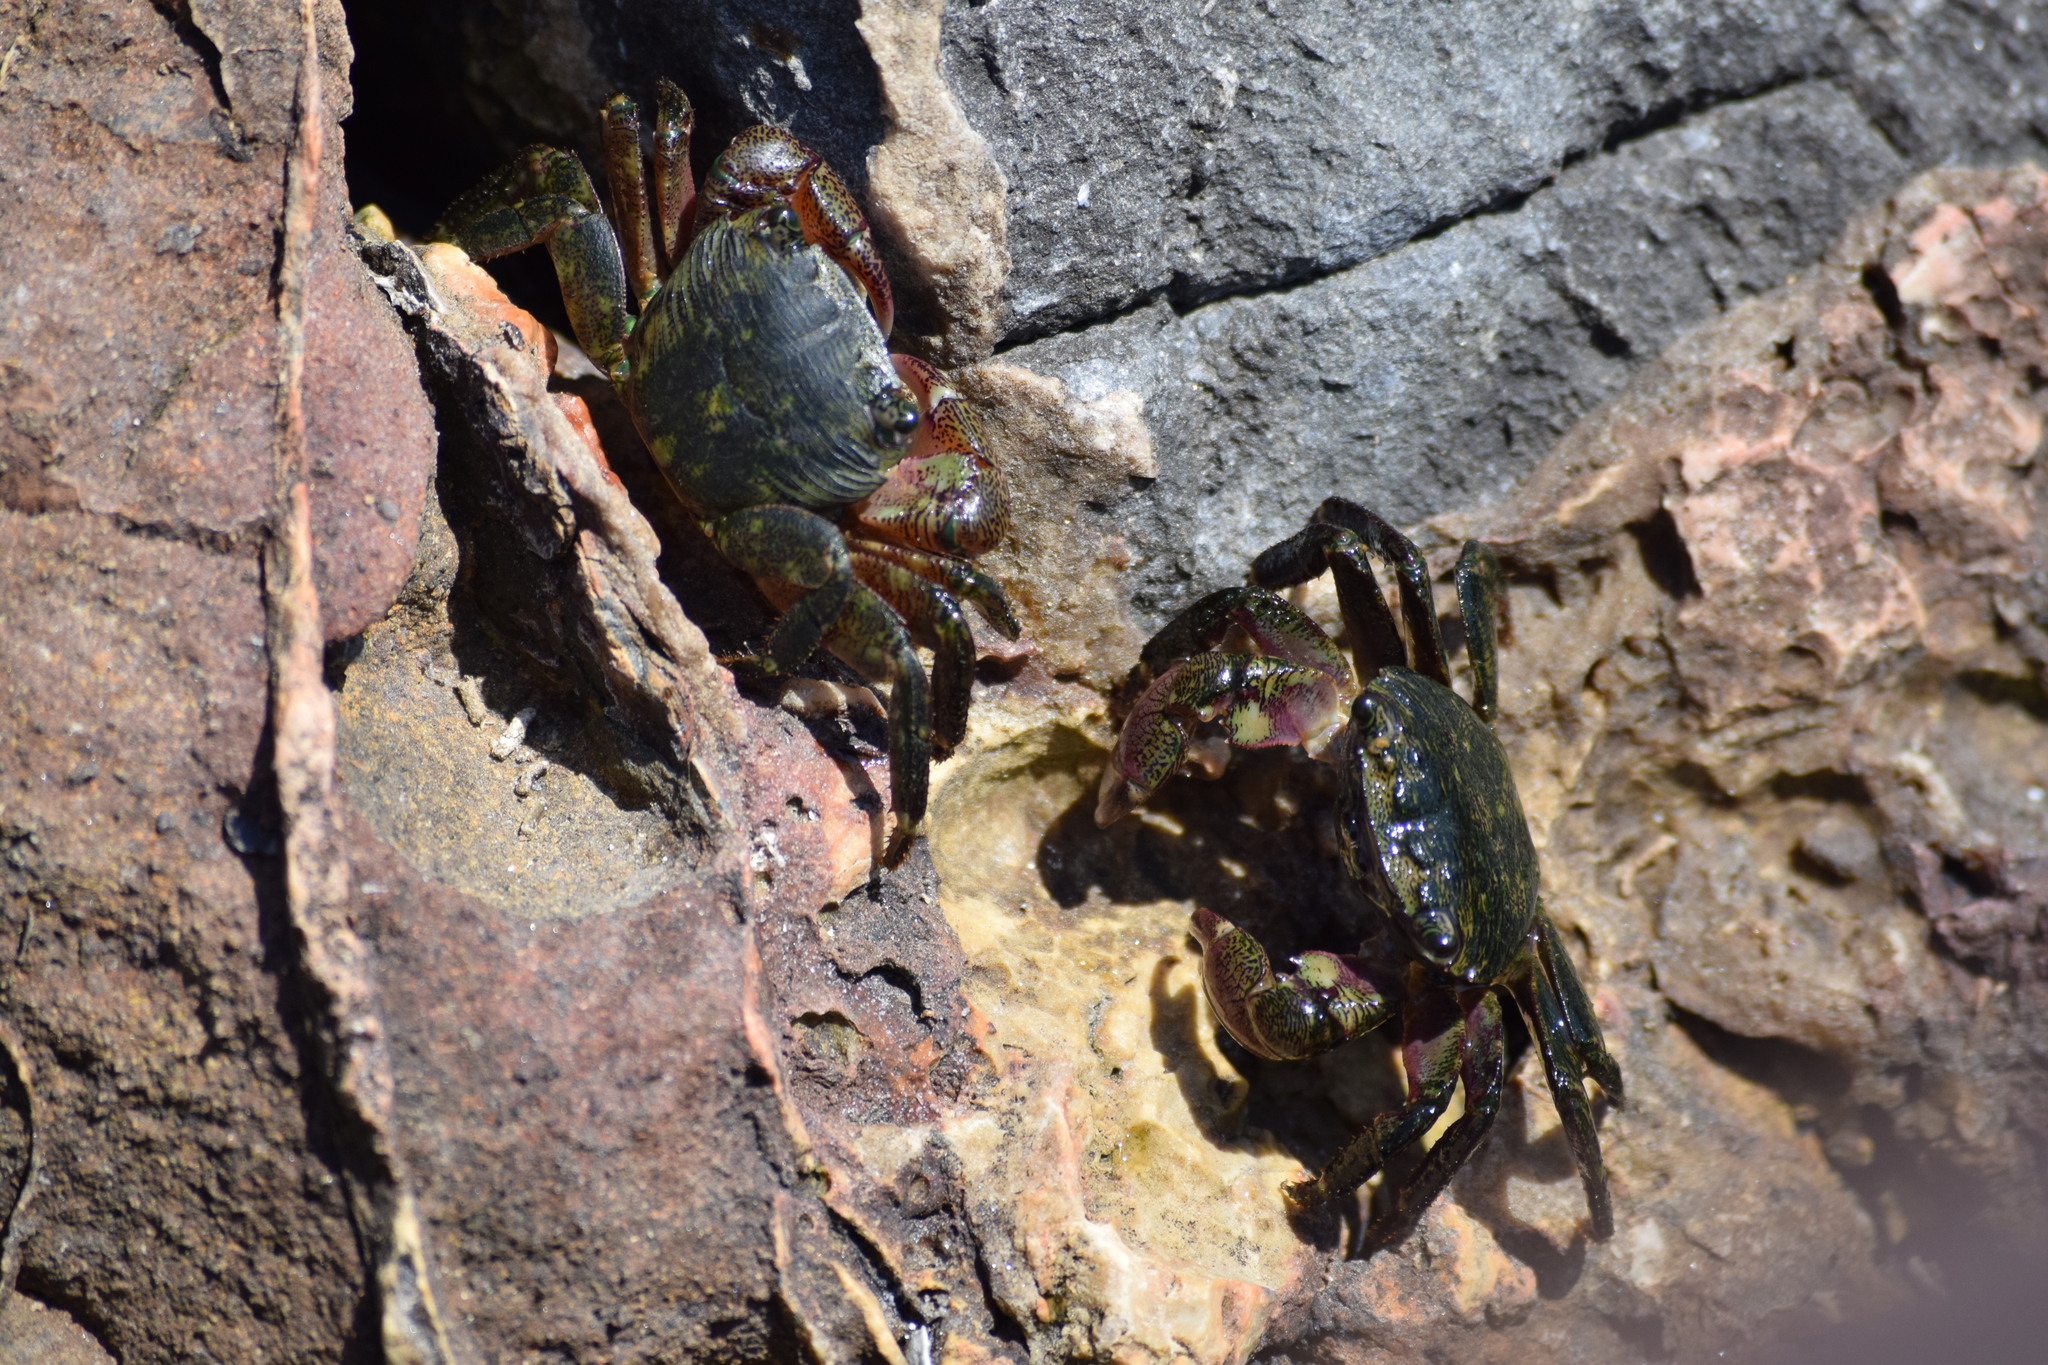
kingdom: Animalia
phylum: Arthropoda
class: Malacostraca
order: Decapoda
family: Grapsidae
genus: Pachygrapsus
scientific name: Pachygrapsus crassipes
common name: Striped shore crab
